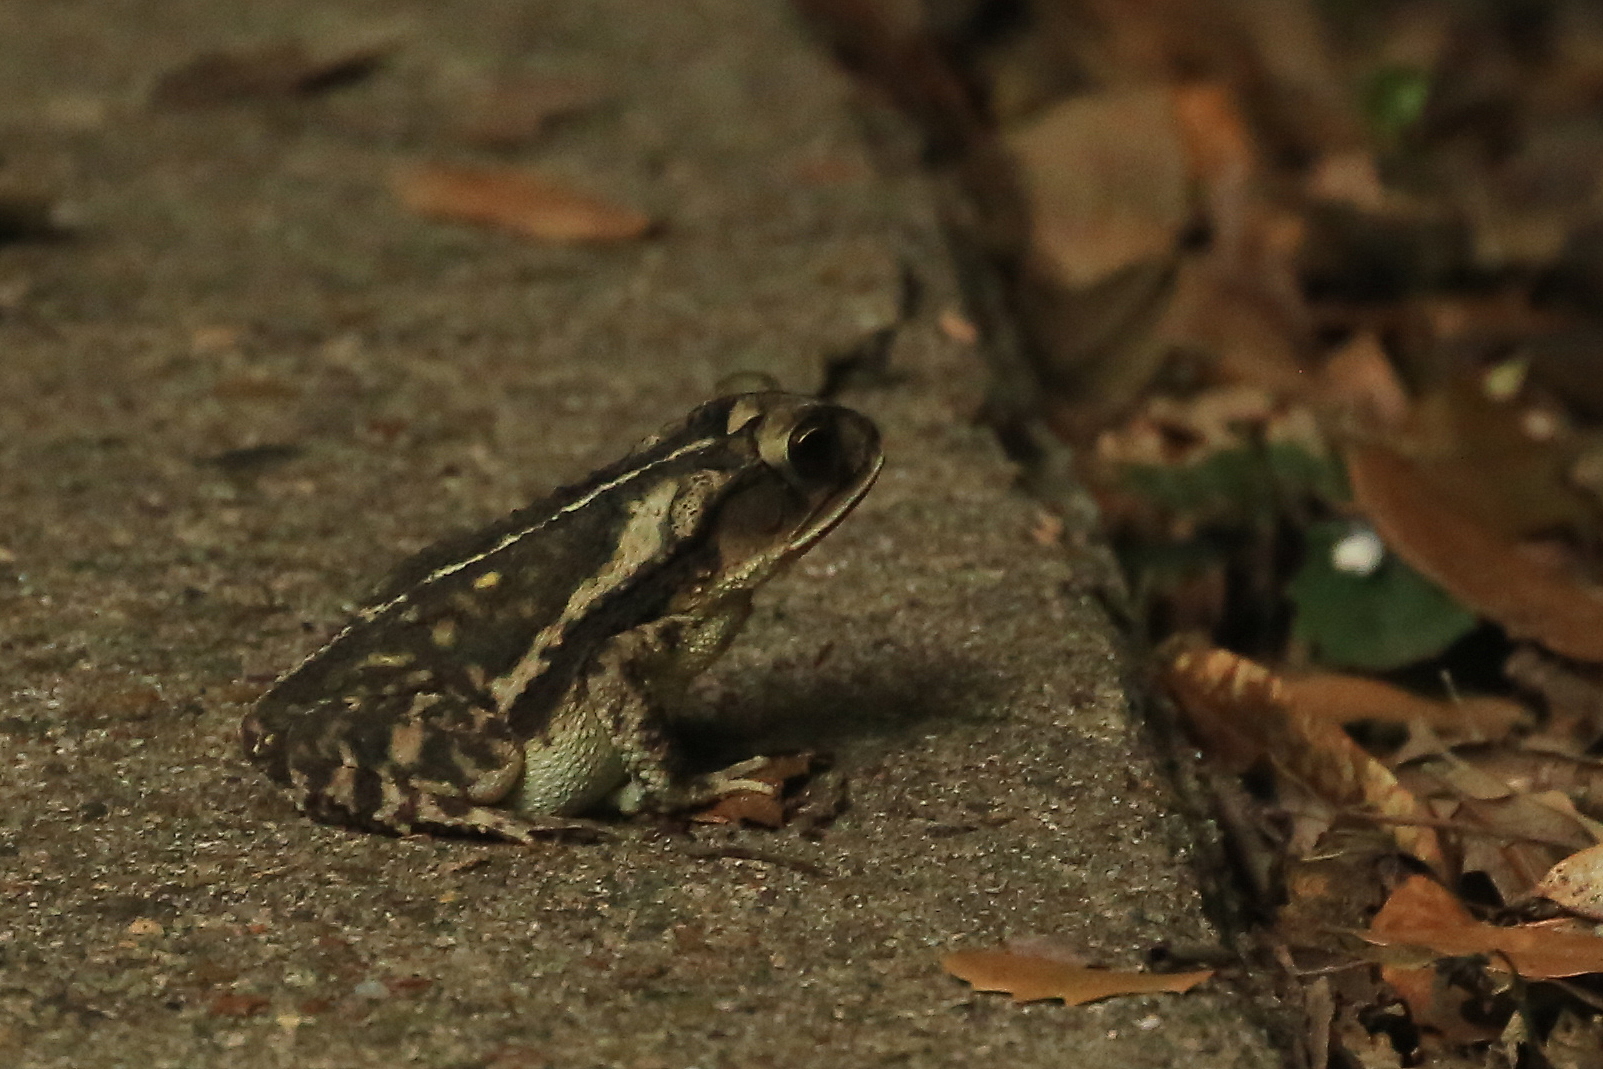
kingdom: Animalia
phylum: Chordata
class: Amphibia
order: Anura
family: Bufonidae
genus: Incilius
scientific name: Incilius nebulifer
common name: Gulf coast toad
